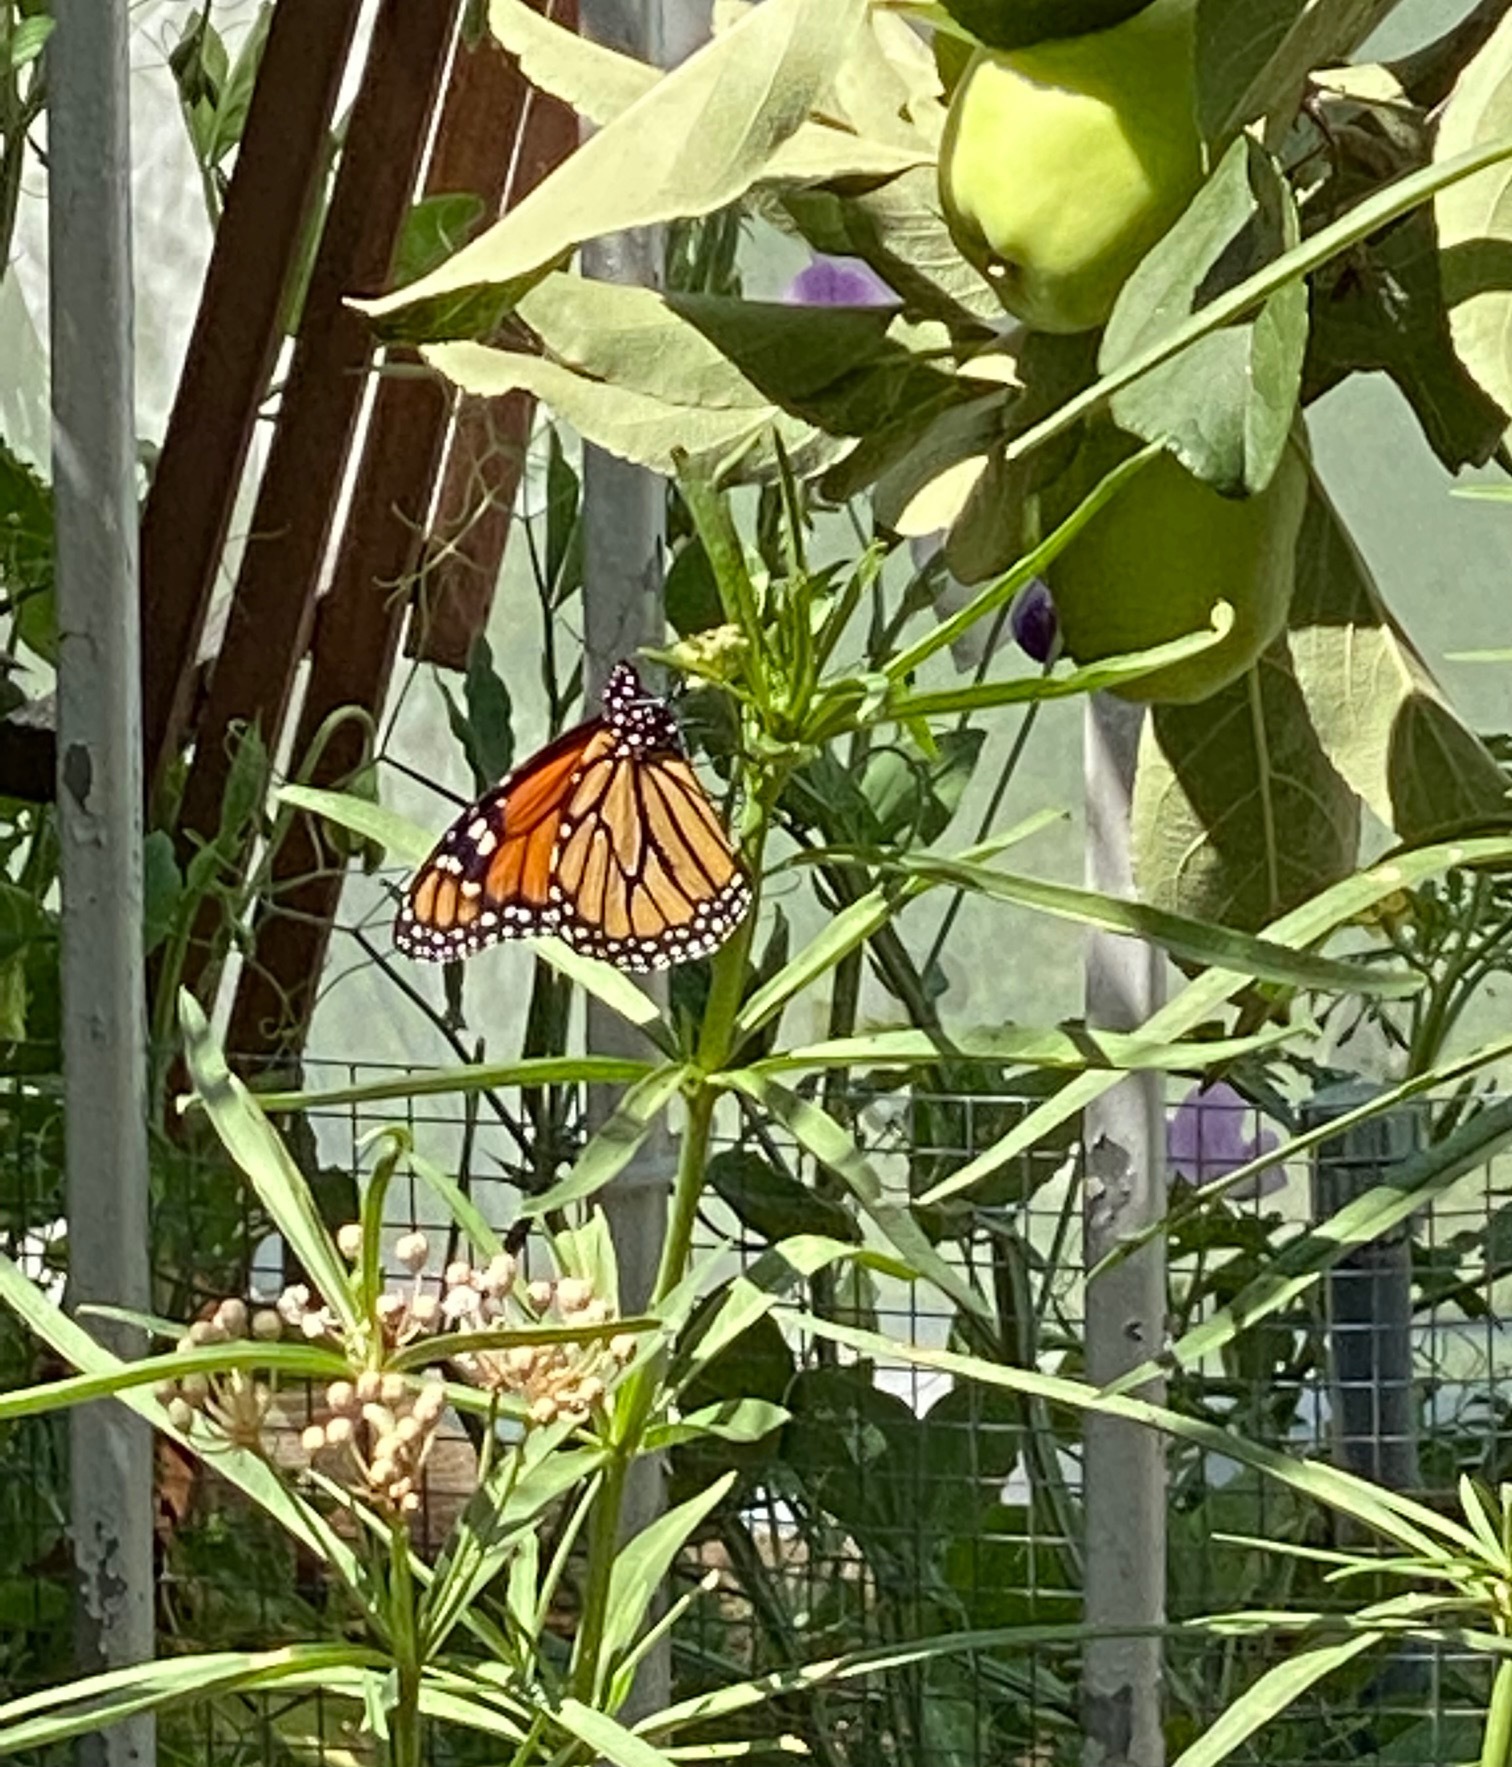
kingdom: Animalia
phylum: Arthropoda
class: Insecta
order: Lepidoptera
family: Nymphalidae
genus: Danaus
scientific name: Danaus plexippus
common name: Monarch
